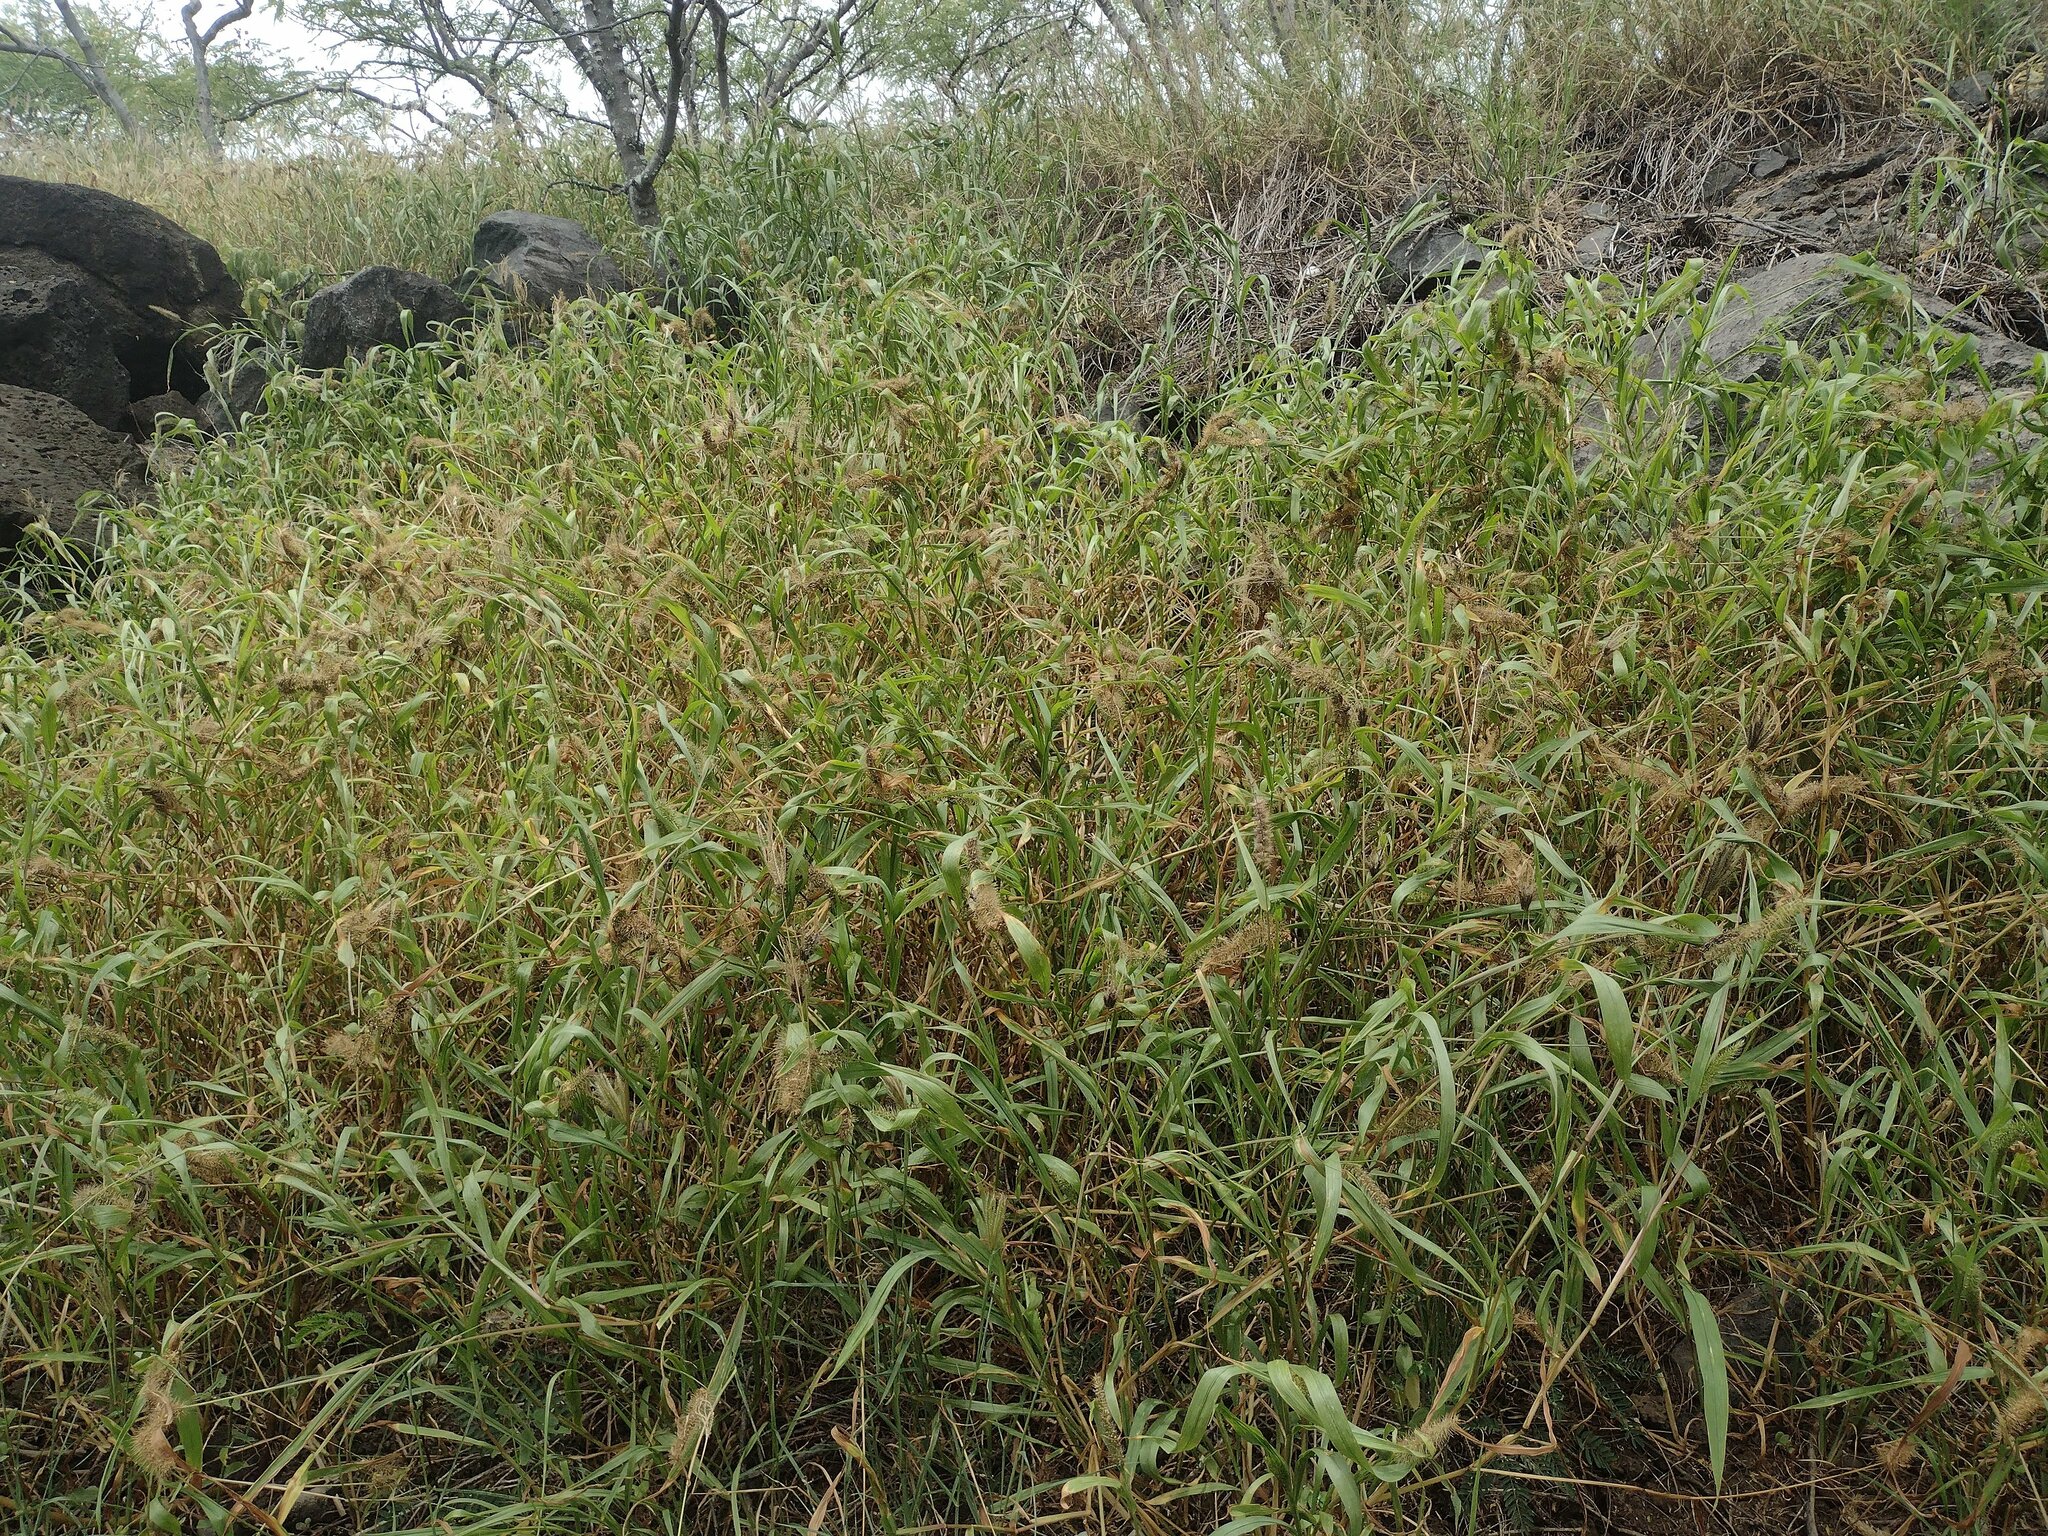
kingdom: Plantae
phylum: Tracheophyta
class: Liliopsida
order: Poales
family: Poaceae
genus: Setaria
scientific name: Setaria adhaerens
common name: Adherent bristle-grass
